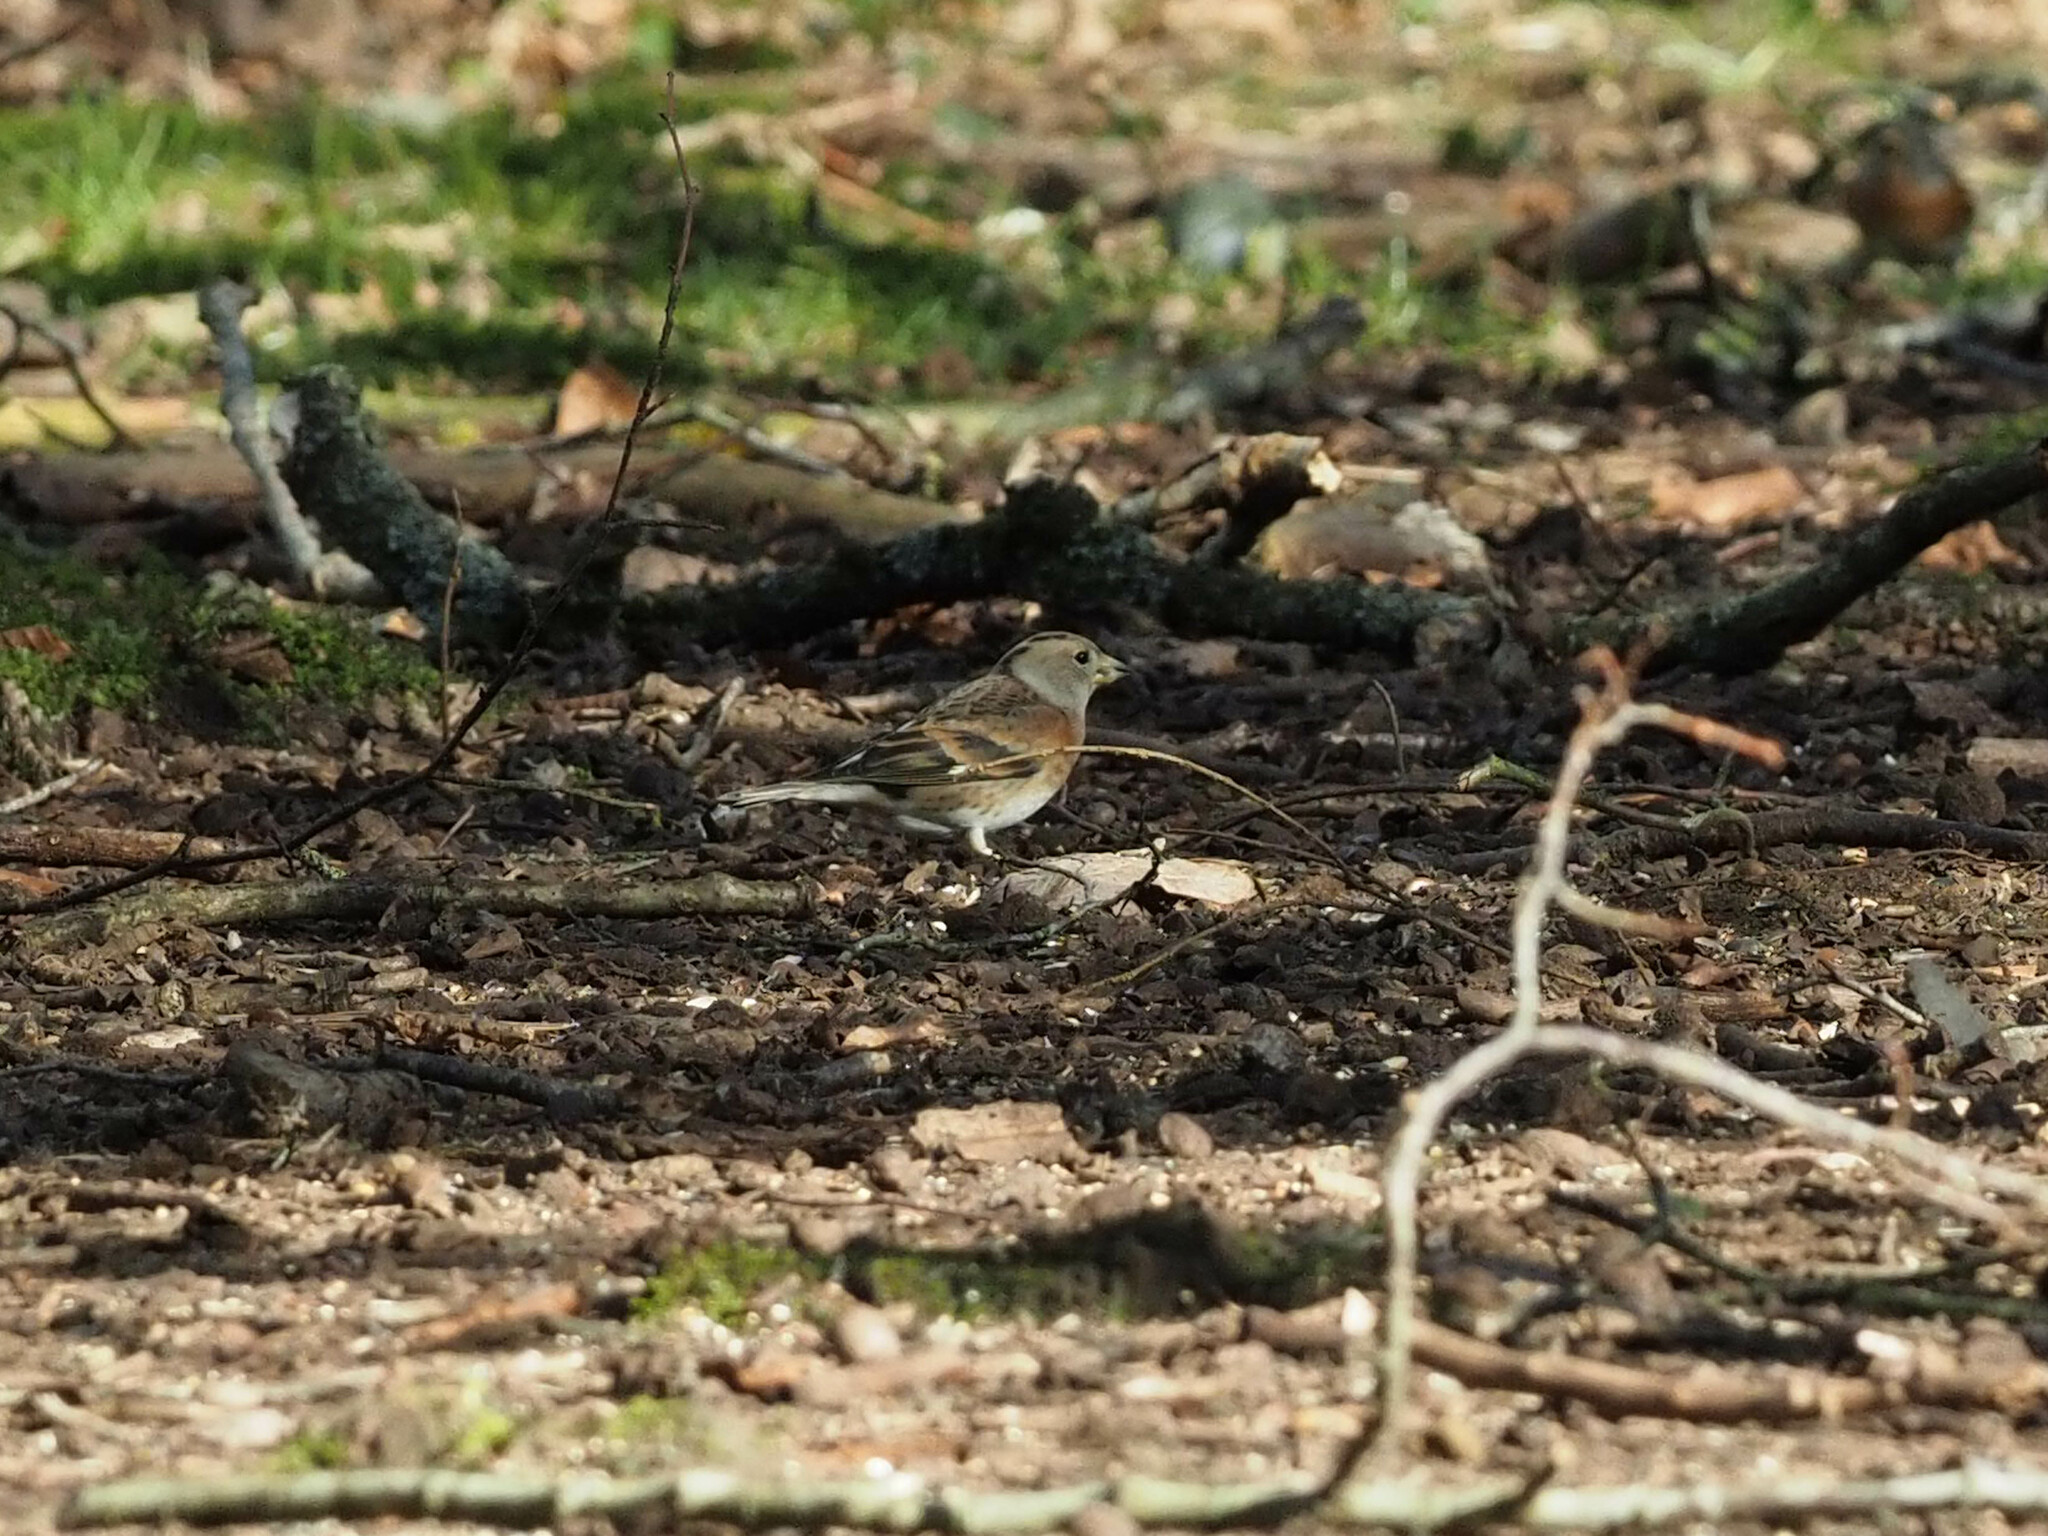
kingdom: Animalia
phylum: Chordata
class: Aves
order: Passeriformes
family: Fringillidae
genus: Fringilla
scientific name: Fringilla montifringilla
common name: Brambling
